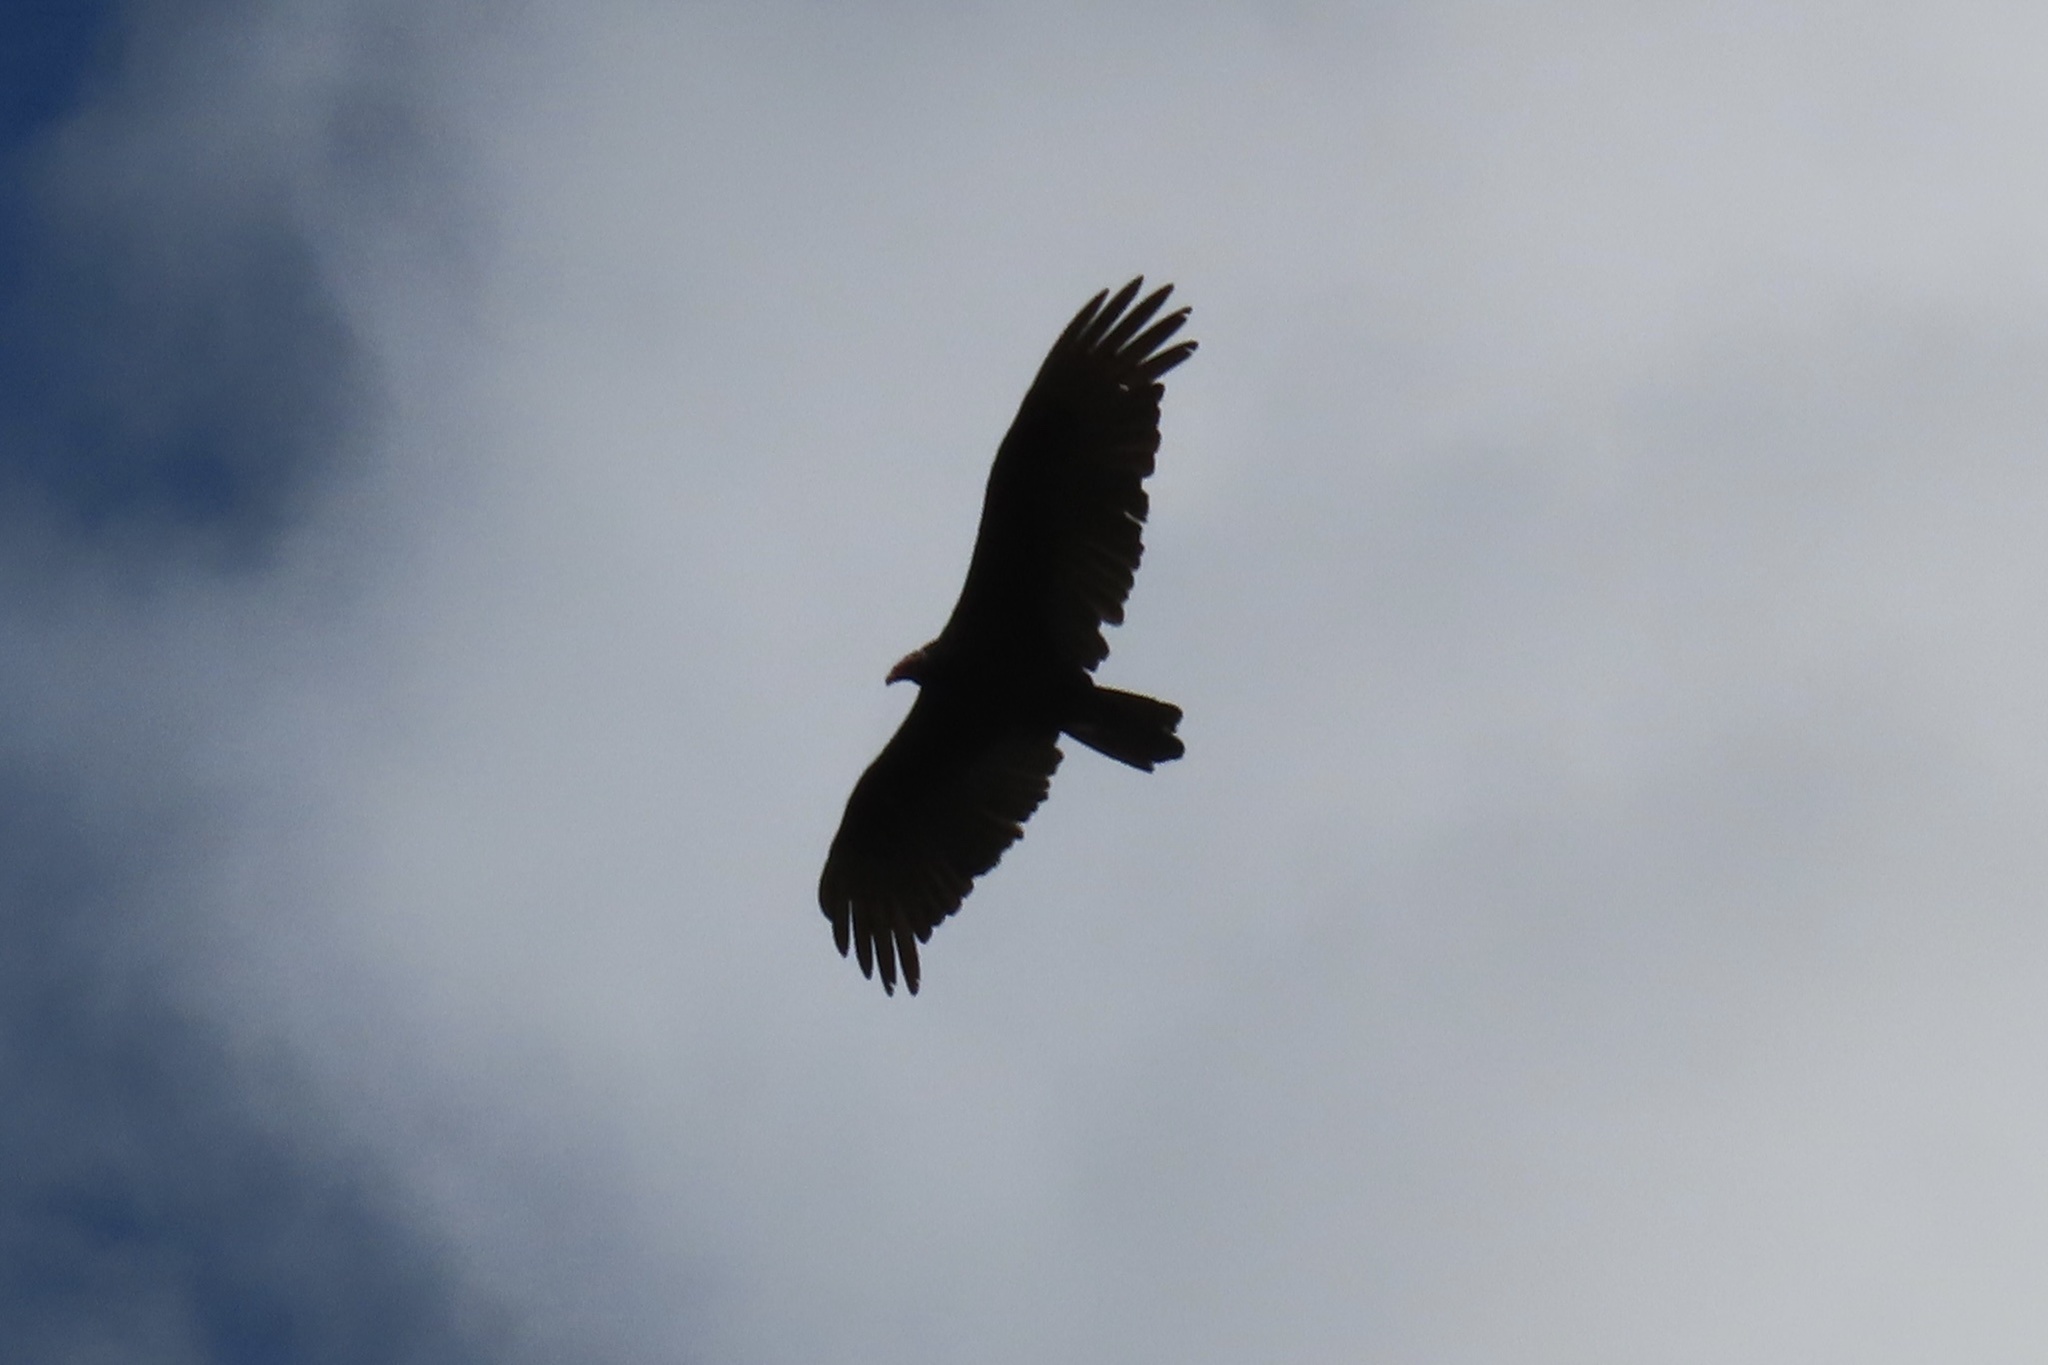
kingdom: Animalia
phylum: Chordata
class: Aves
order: Accipitriformes
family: Cathartidae
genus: Cathartes
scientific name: Cathartes aura
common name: Turkey vulture
